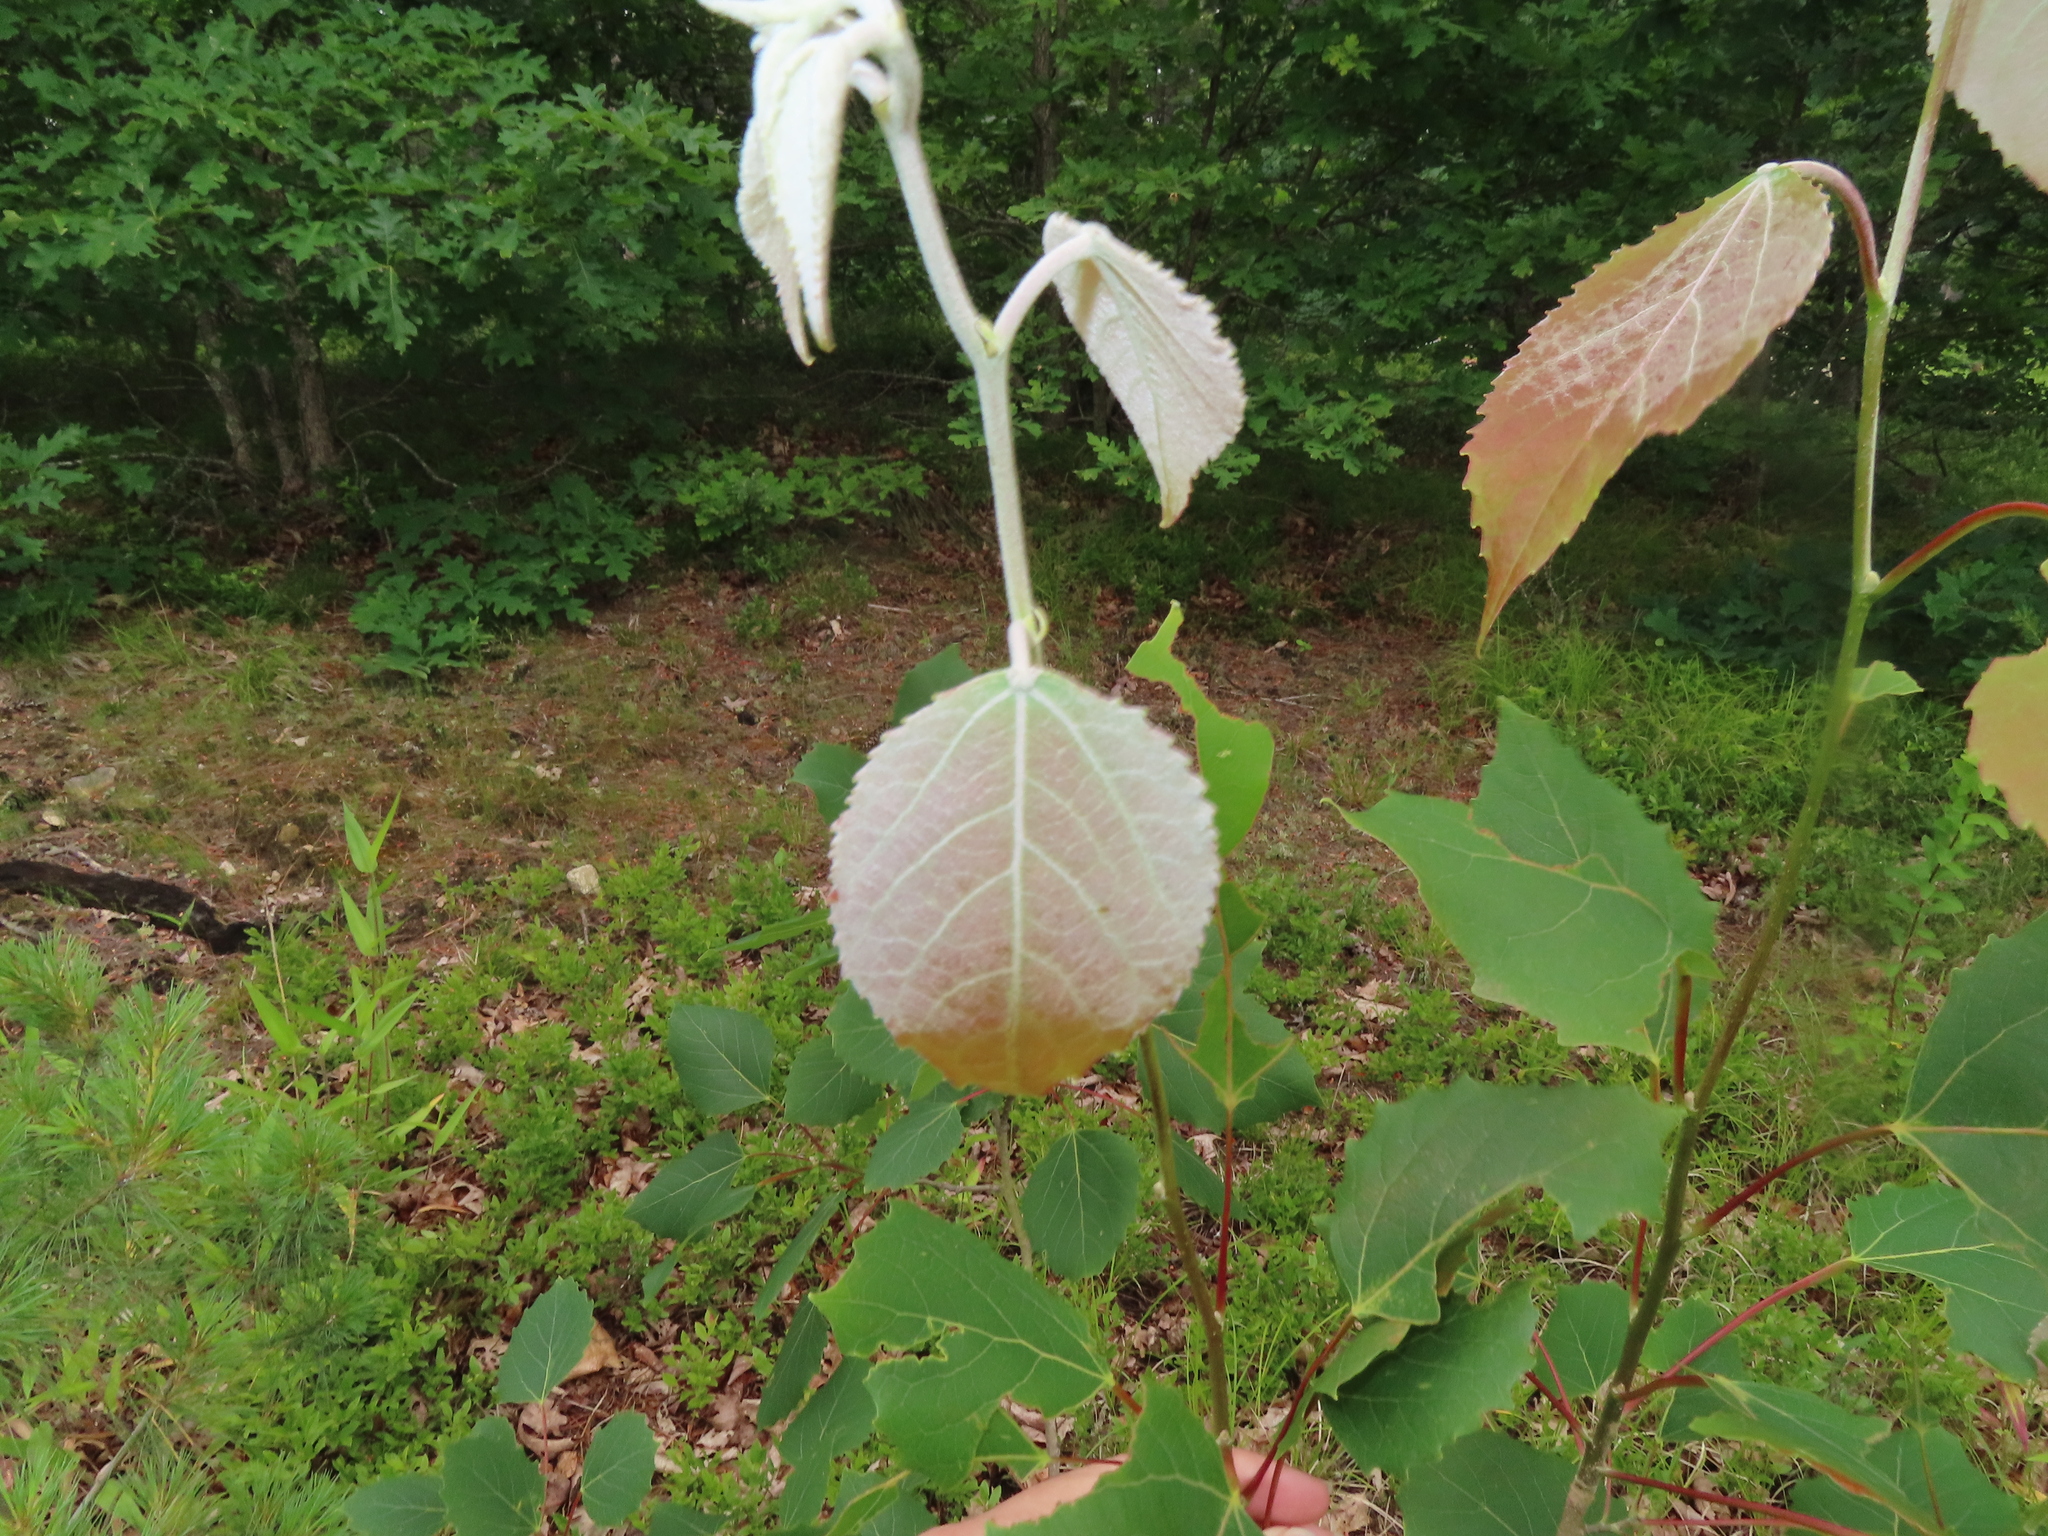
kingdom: Plantae
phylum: Tracheophyta
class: Magnoliopsida
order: Malpighiales
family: Salicaceae
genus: Populus
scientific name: Populus grandidentata
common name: Bigtooth aspen
